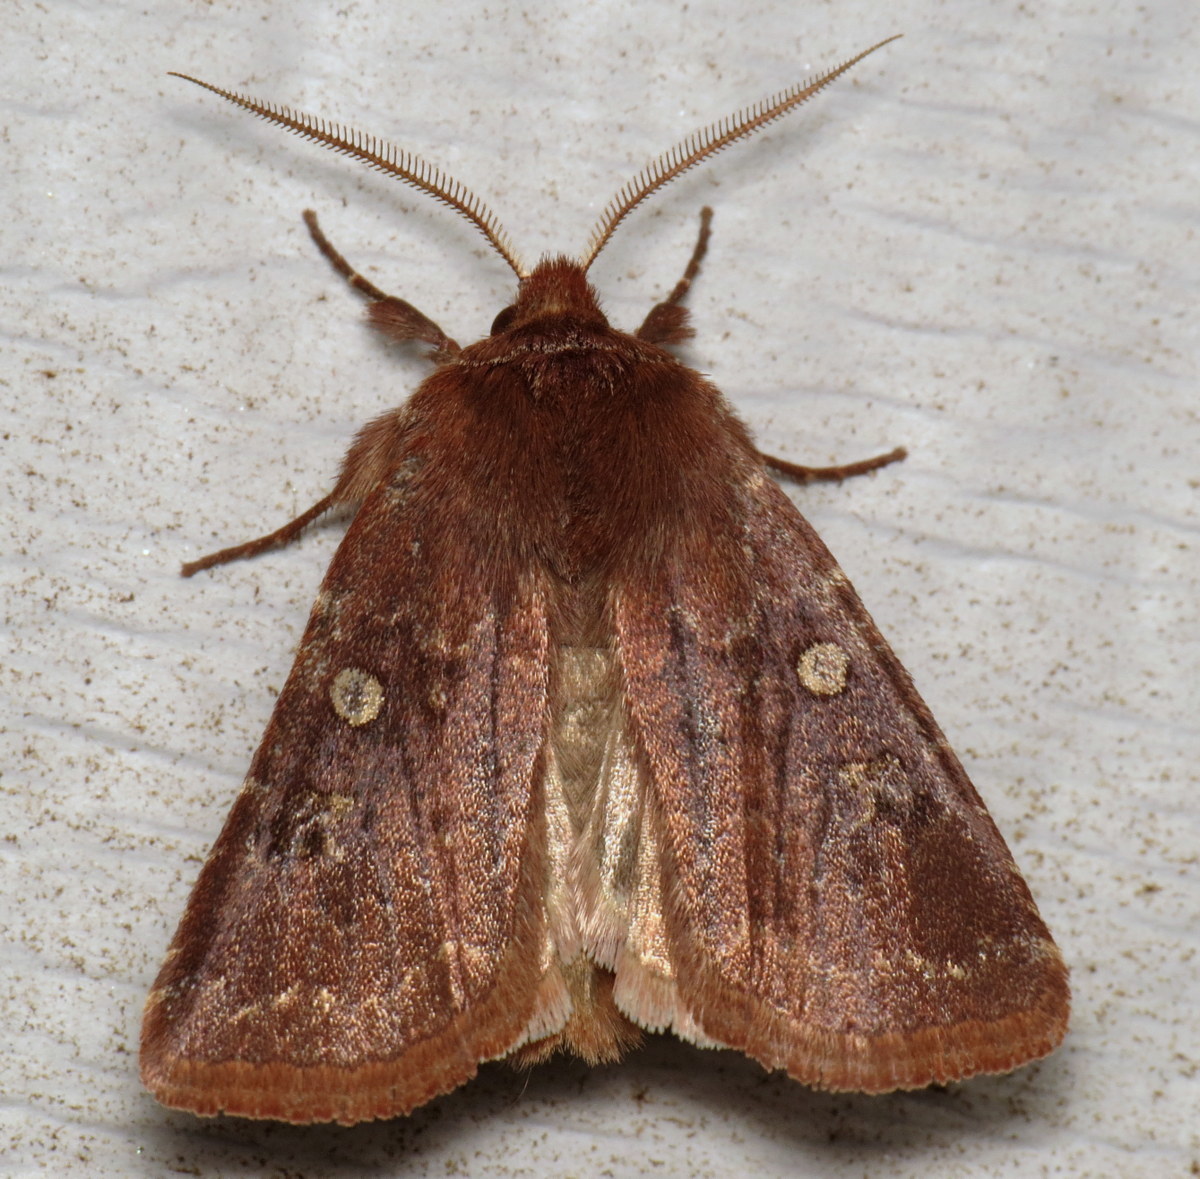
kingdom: Animalia
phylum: Arthropoda
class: Insecta
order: Lepidoptera
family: Noctuidae
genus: Cerastis
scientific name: Cerastis tenebrifera
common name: Reddish speckled dart
